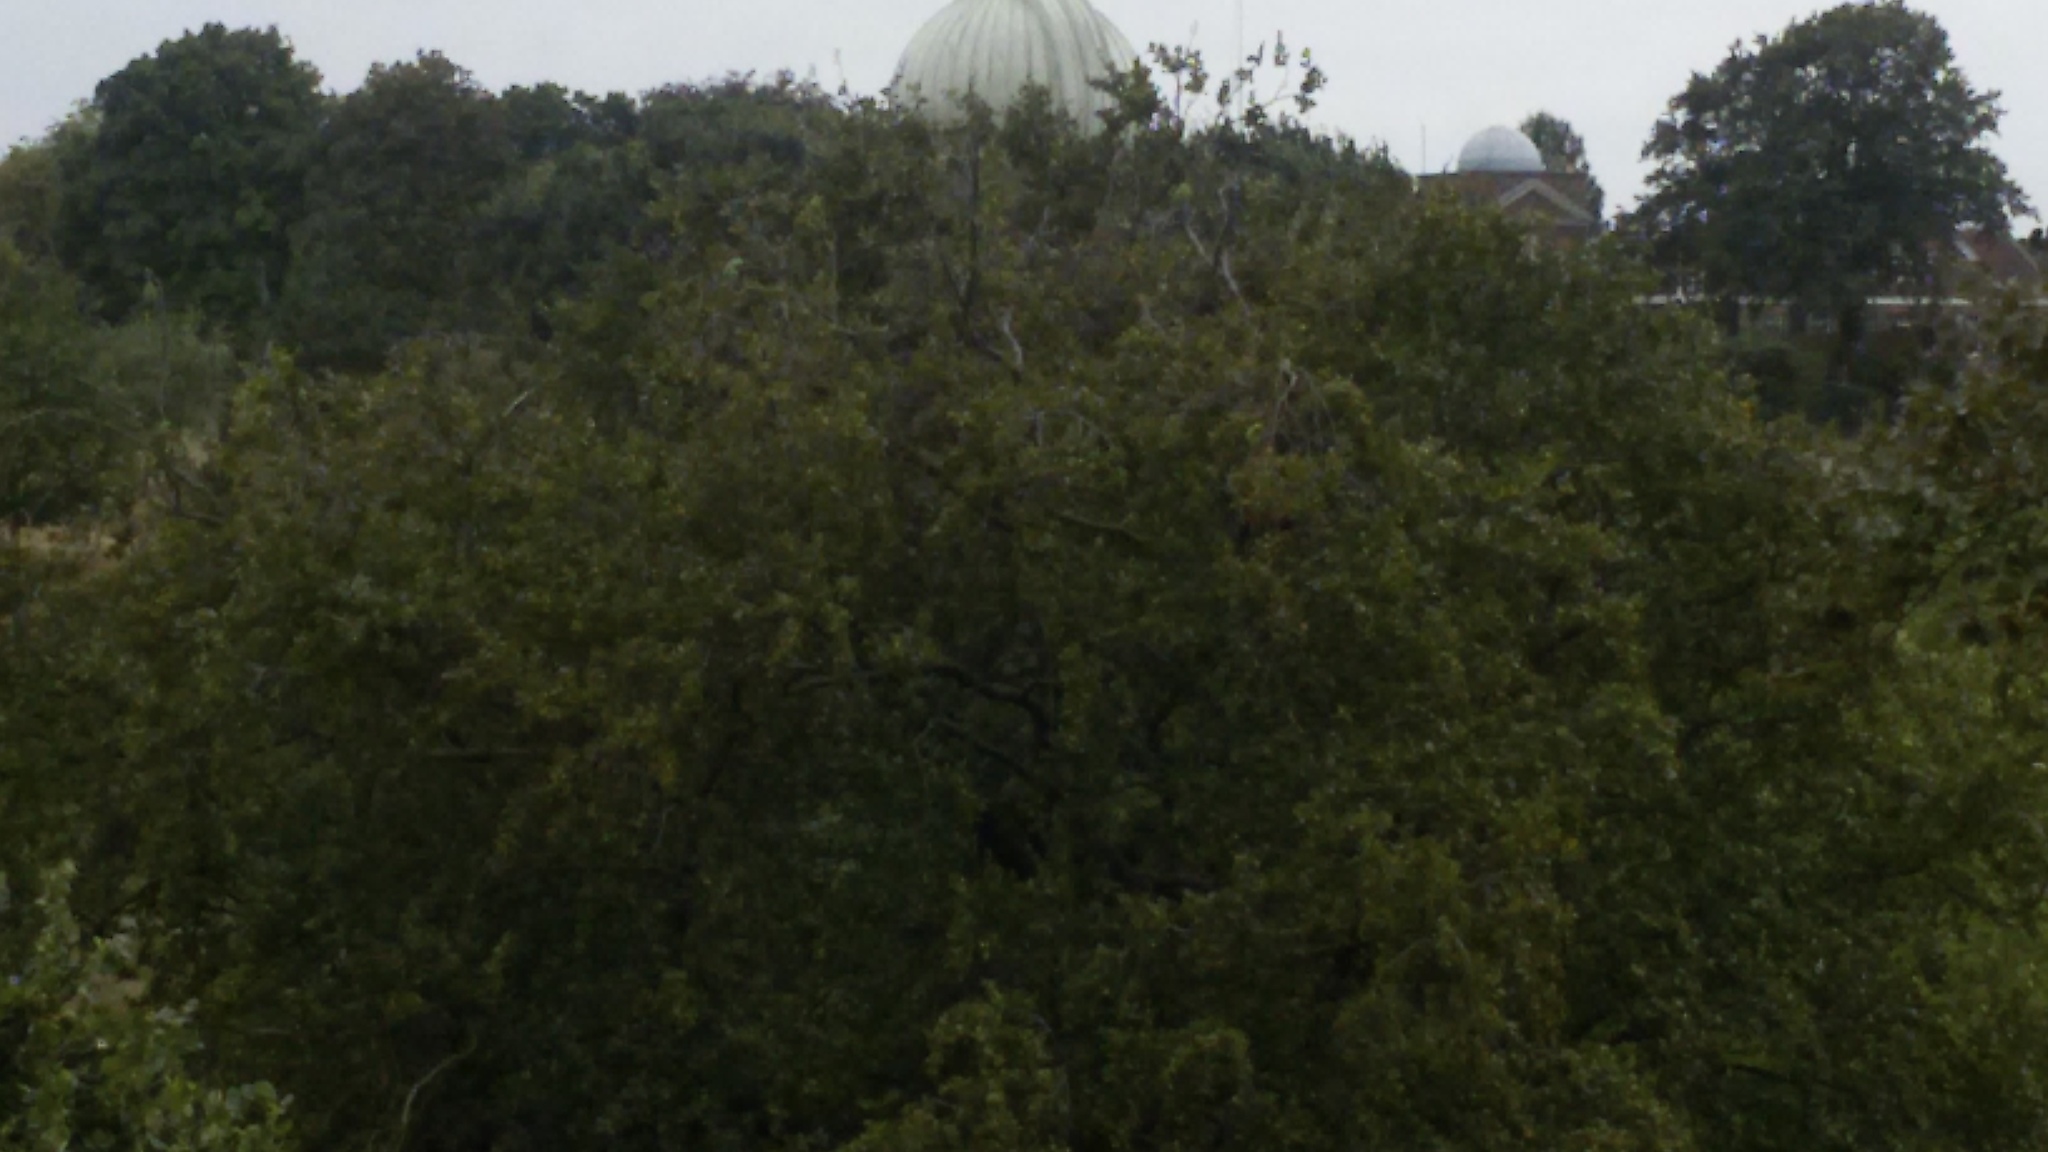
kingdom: Animalia
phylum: Chordata
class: Aves
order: Psittaciformes
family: Psittacidae
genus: Psittacula
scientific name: Psittacula krameri
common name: Rose-ringed parakeet
